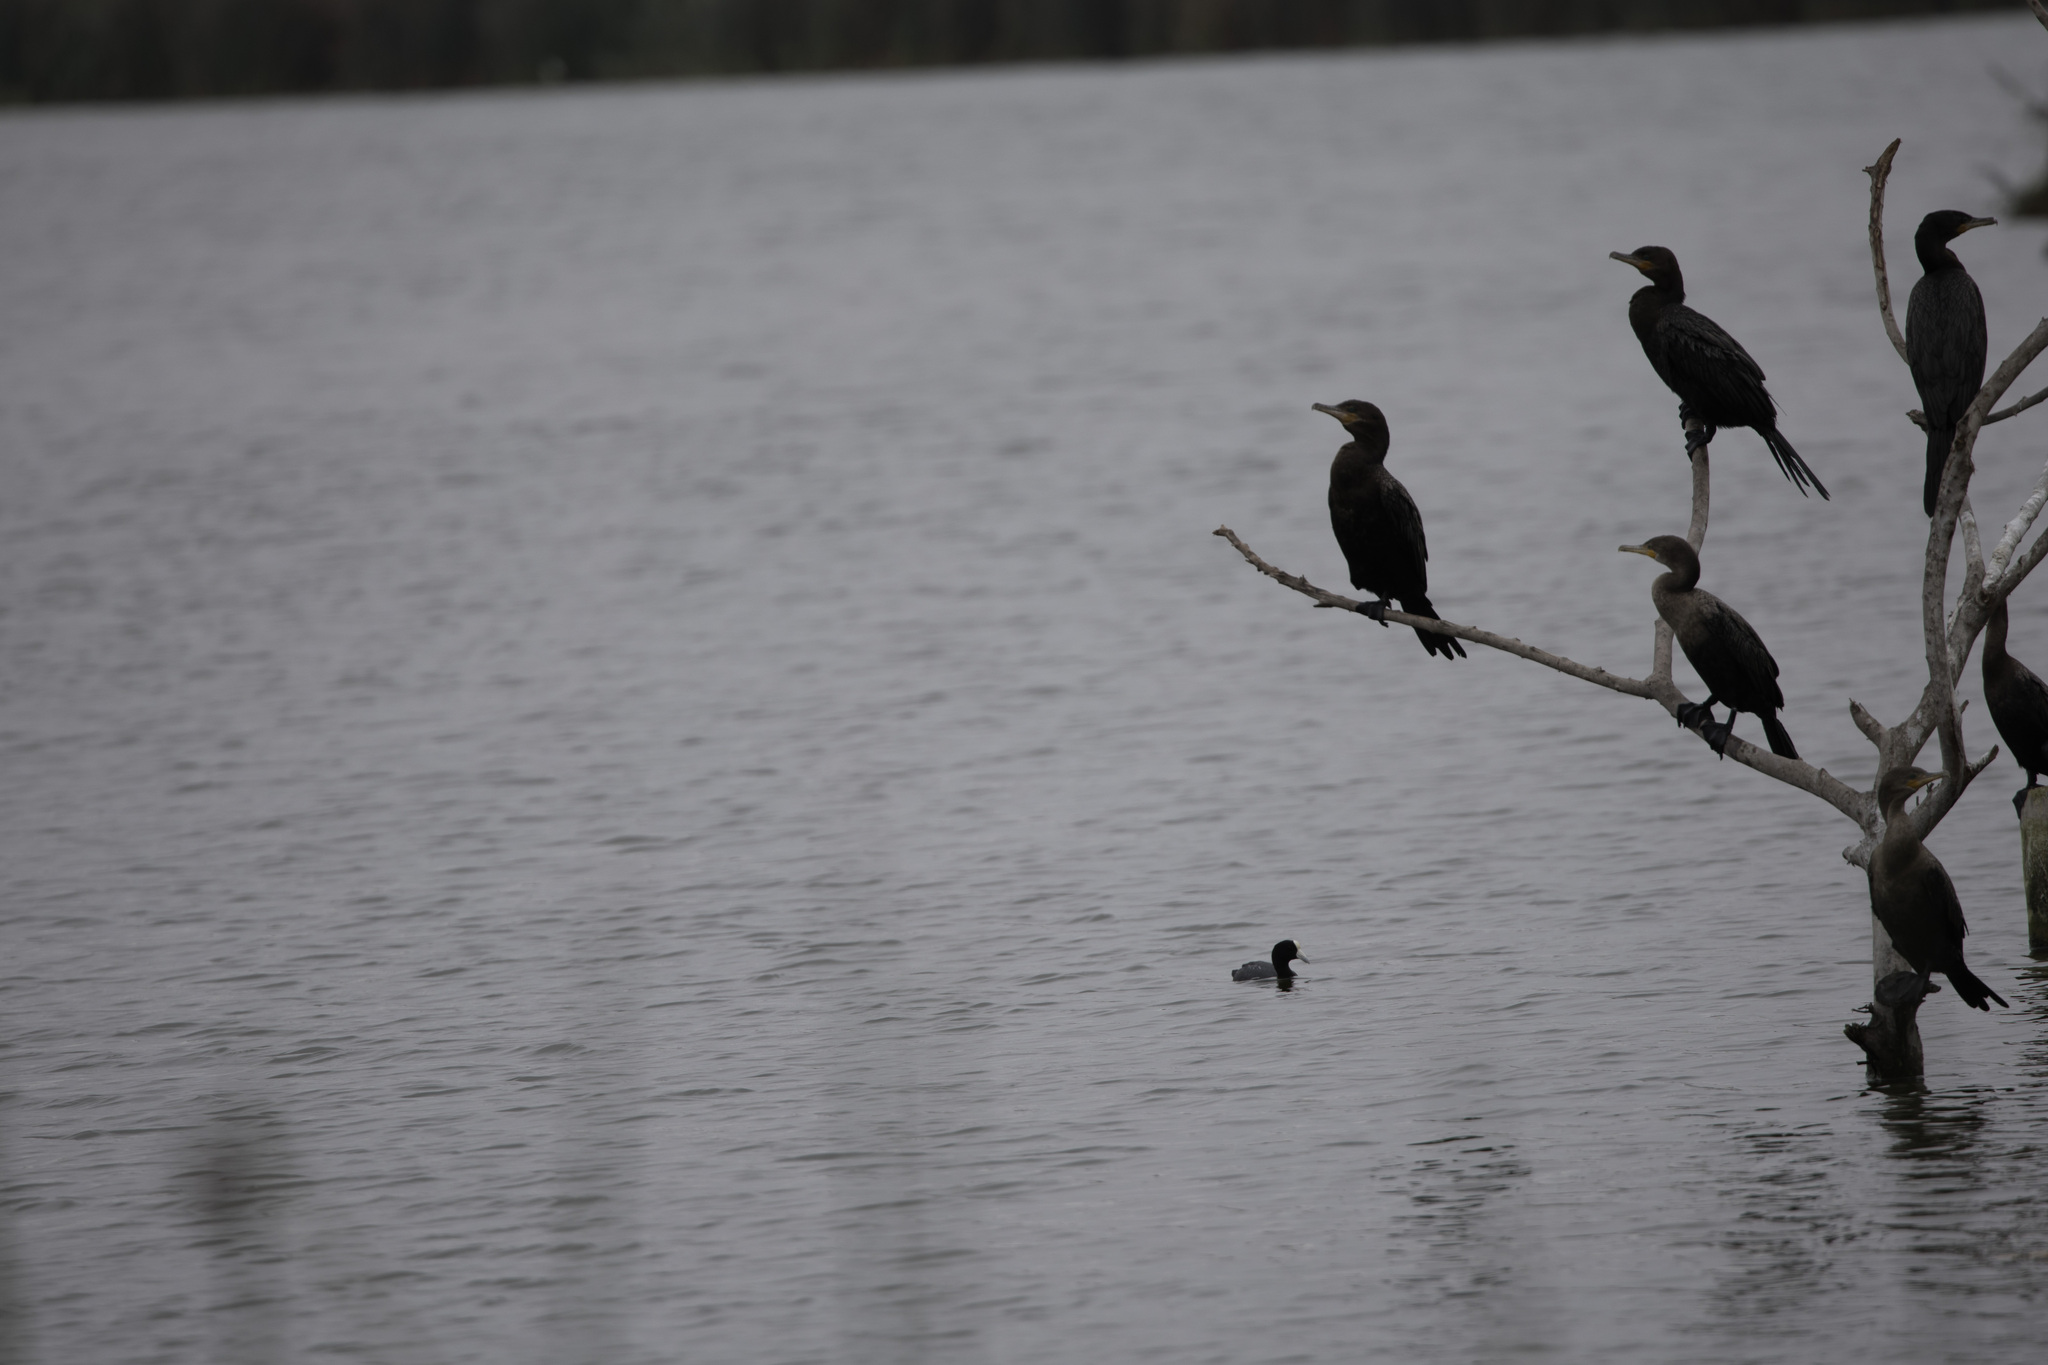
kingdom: Animalia
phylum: Chordata
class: Aves
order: Gruiformes
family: Rallidae
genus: Fulica
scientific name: Fulica ardesiaca
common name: Andean coot
